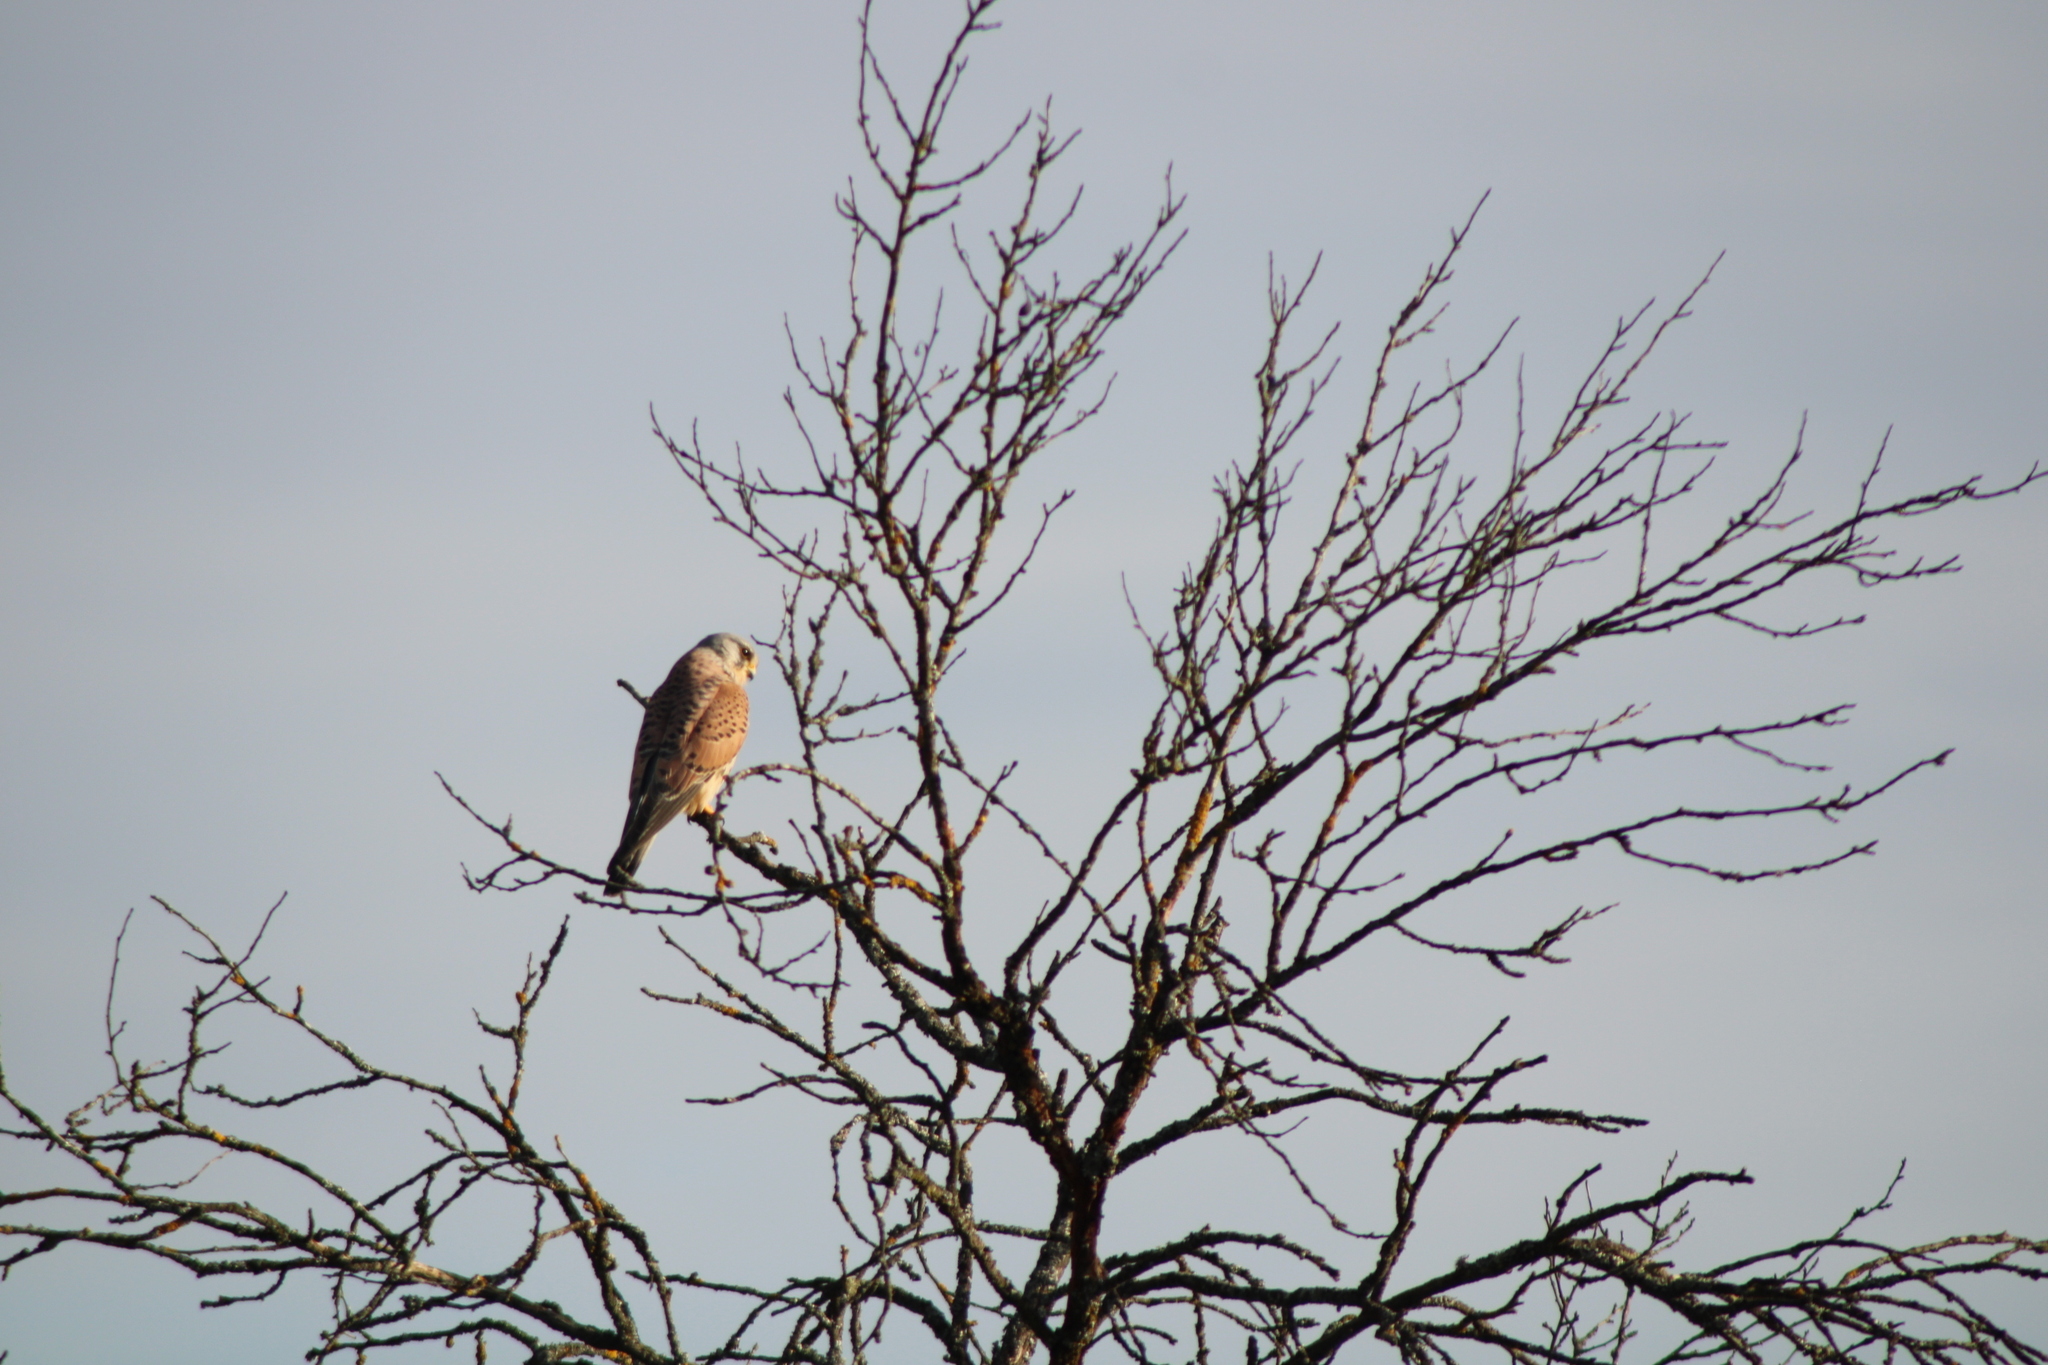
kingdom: Animalia
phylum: Chordata
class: Aves
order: Falconiformes
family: Falconidae
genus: Falco
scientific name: Falco tinnunculus
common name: Common kestrel
